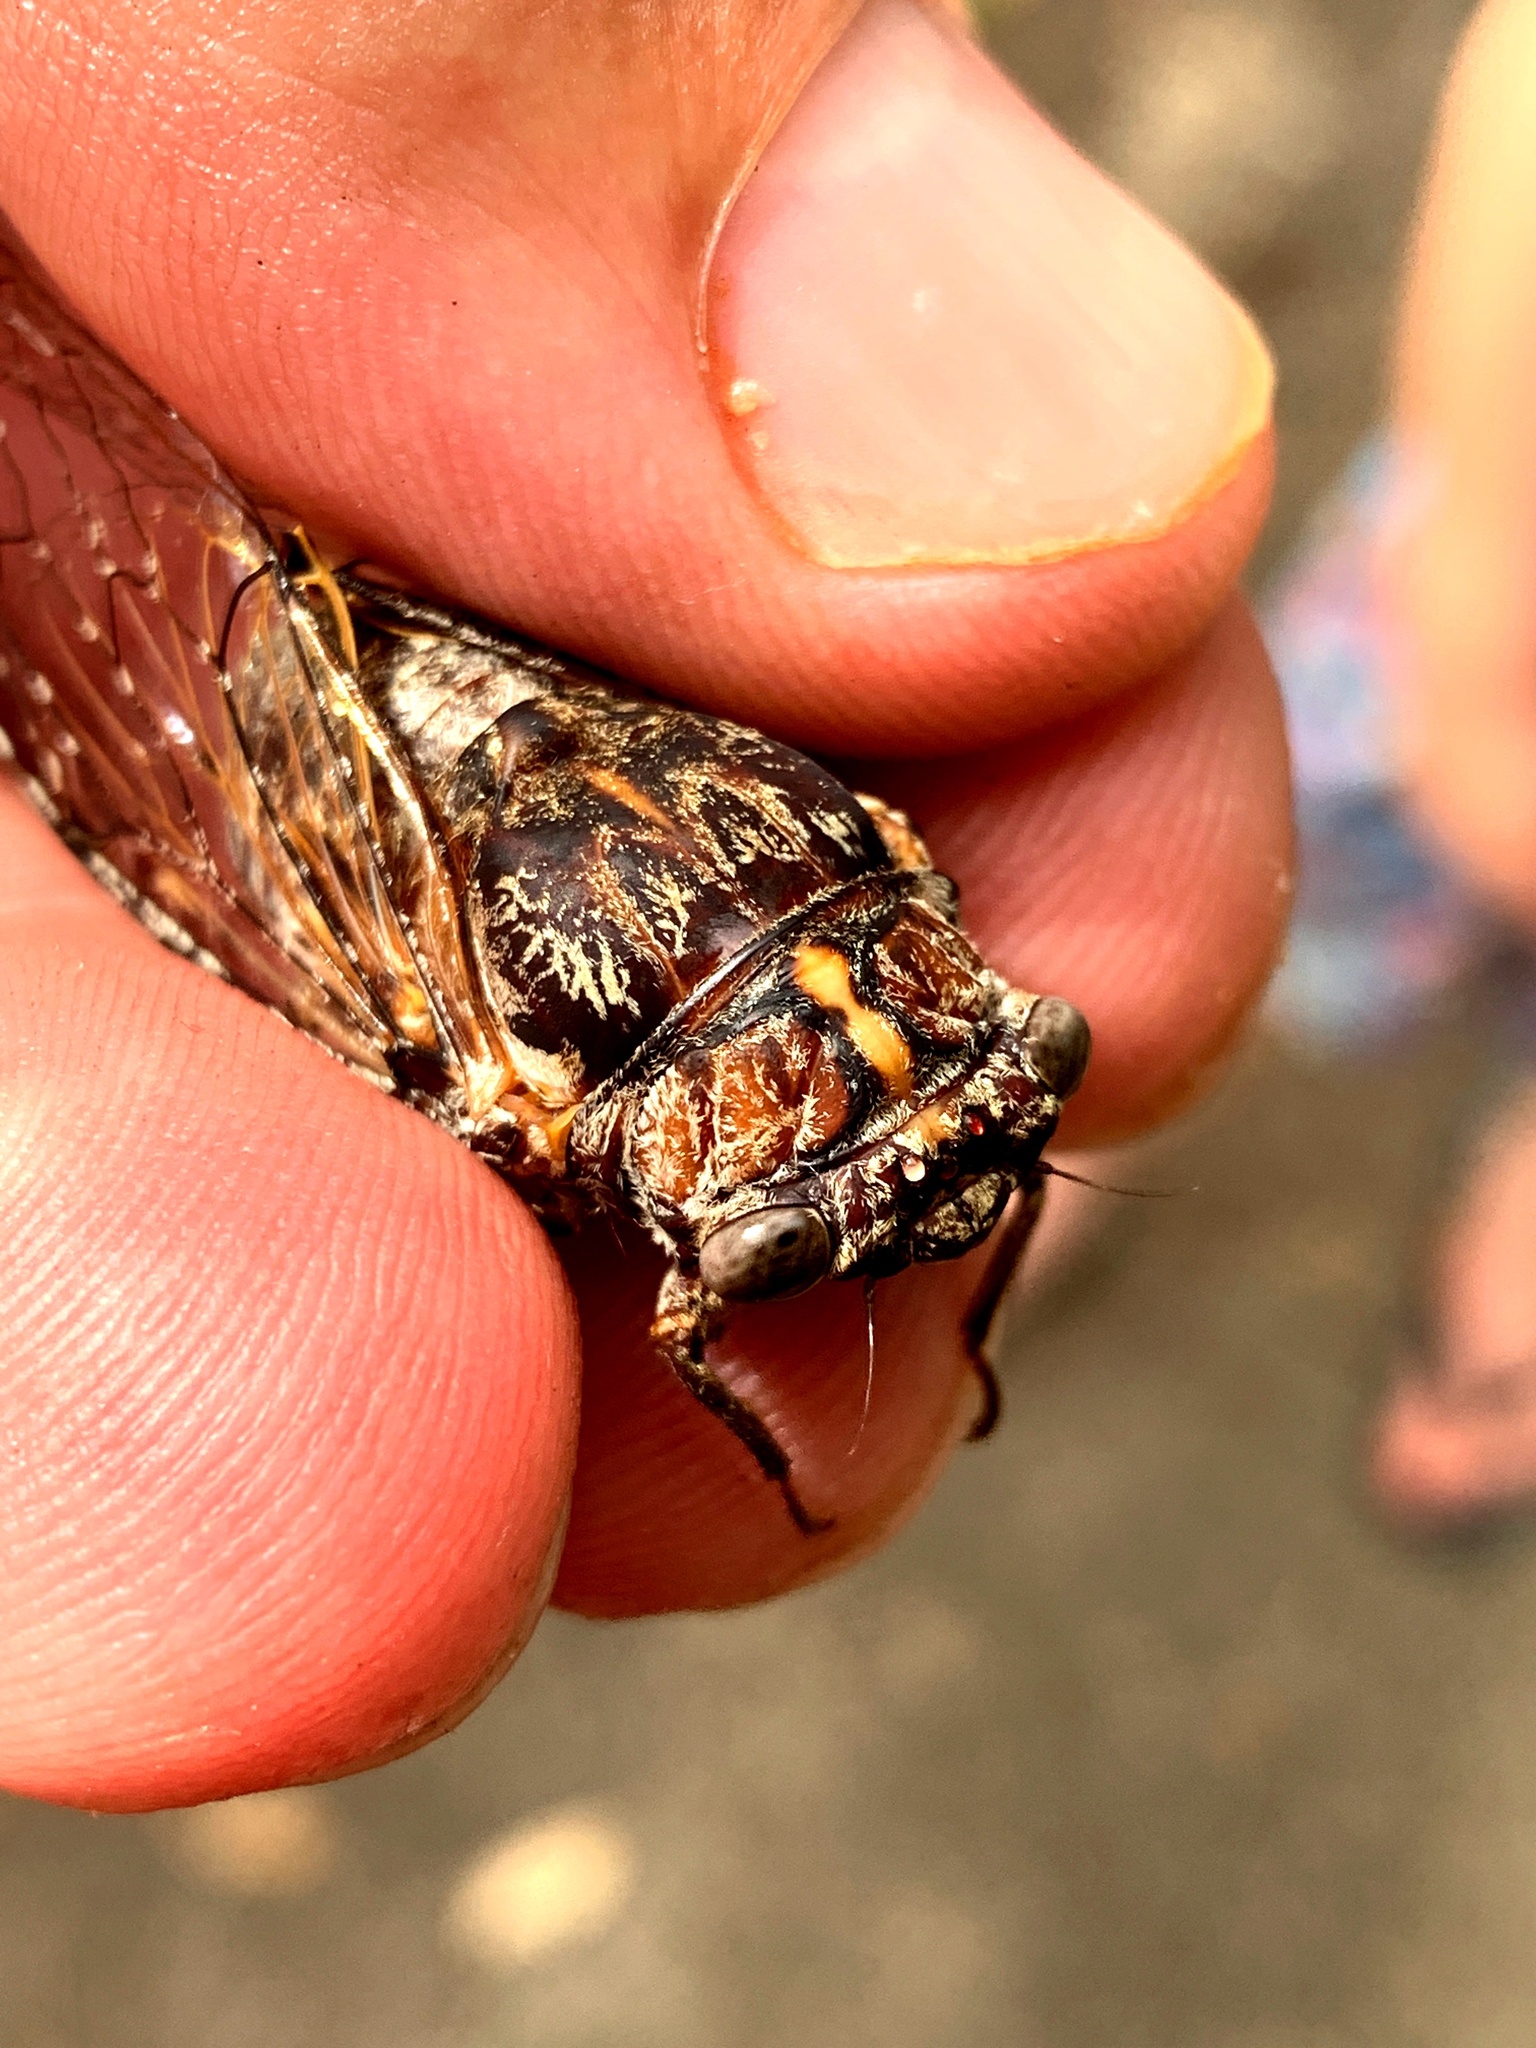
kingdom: Animalia
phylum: Arthropoda
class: Insecta
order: Hemiptera
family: Cicadidae
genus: Aleeta
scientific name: Aleeta curvicosta
